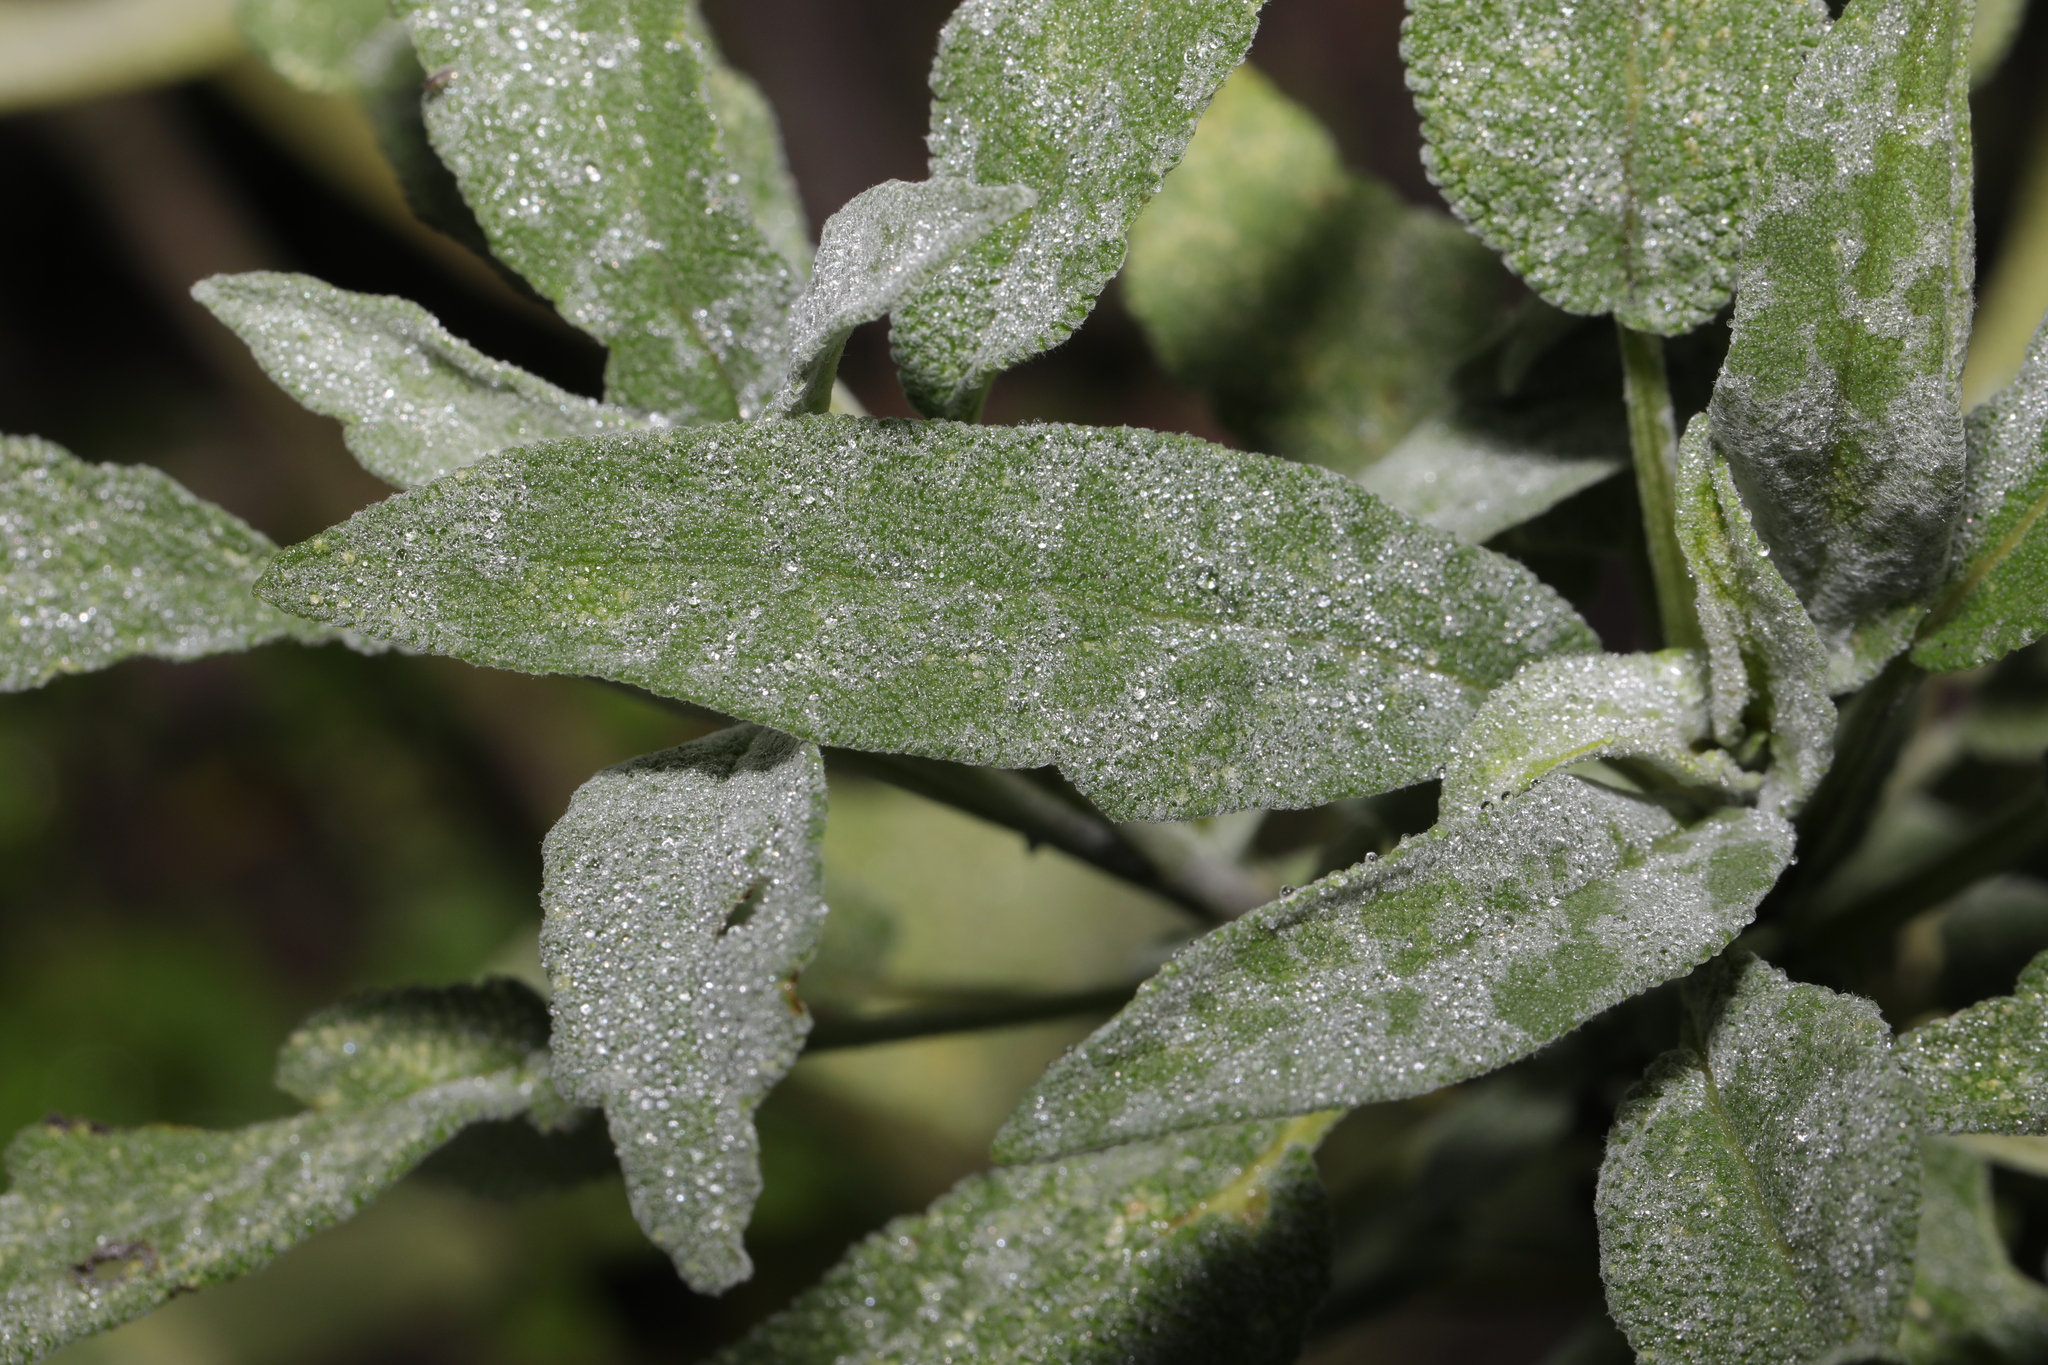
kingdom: Fungi
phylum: Ascomycota
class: Leotiomycetes
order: Helotiales
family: Erysiphaceae
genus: Golovinomyces
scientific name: Golovinomyces neosalviae
